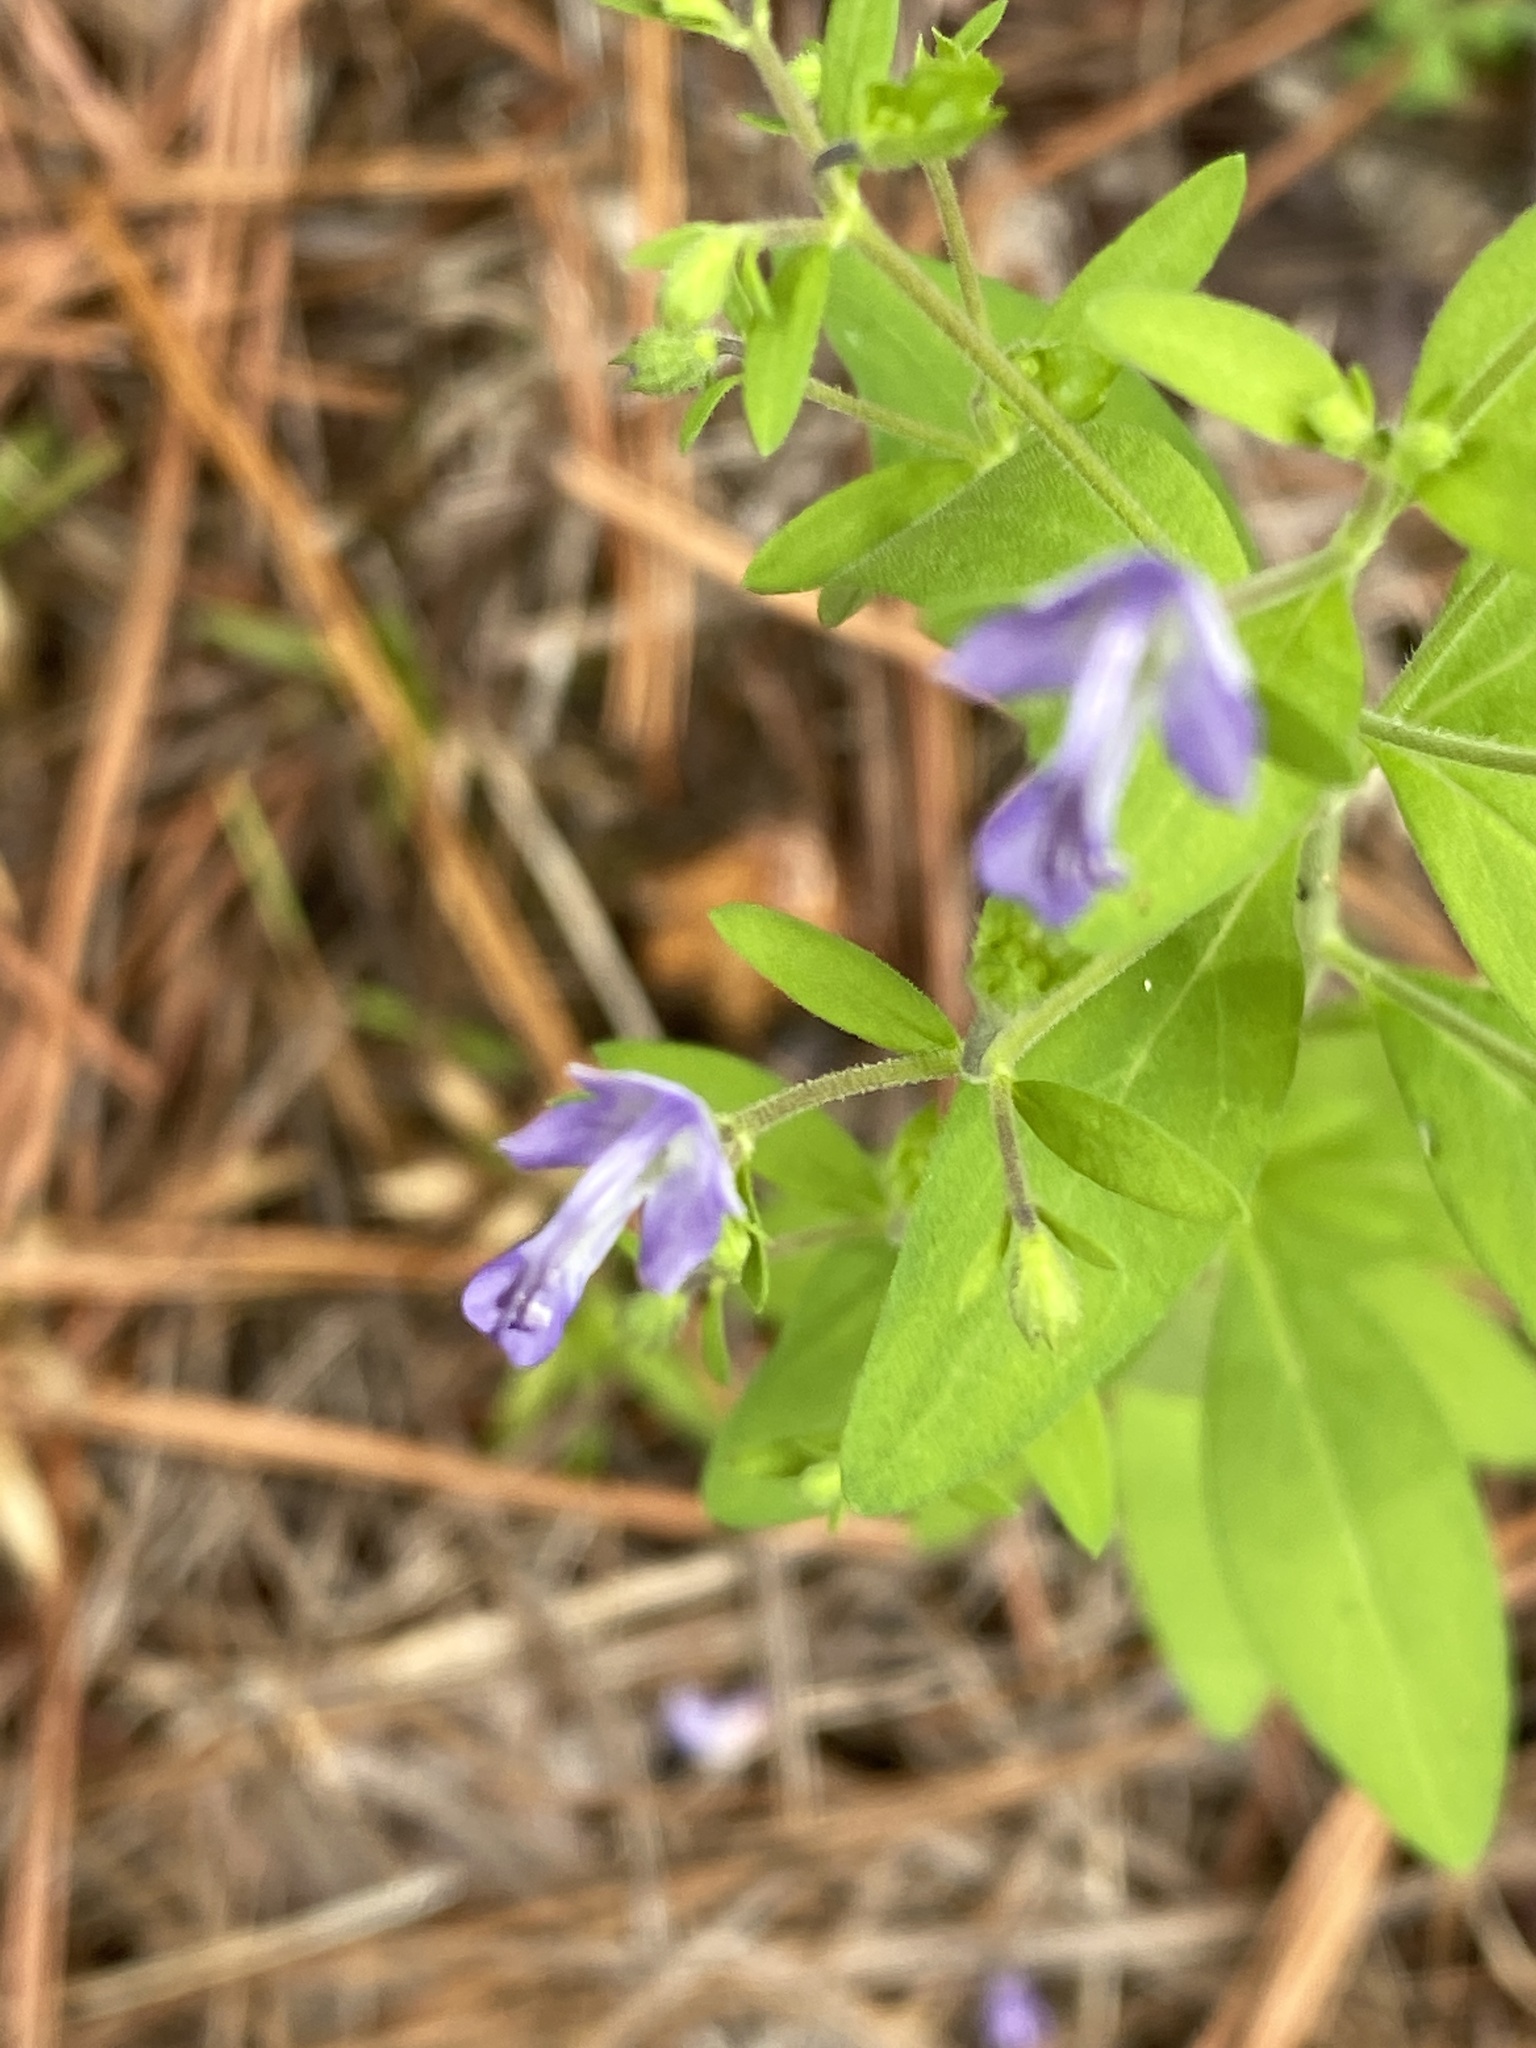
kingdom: Plantae
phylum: Tracheophyta
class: Magnoliopsida
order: Lamiales
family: Lamiaceae
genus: Trichostema
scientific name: Trichostema dichotomum
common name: Bastard pennyroyal
